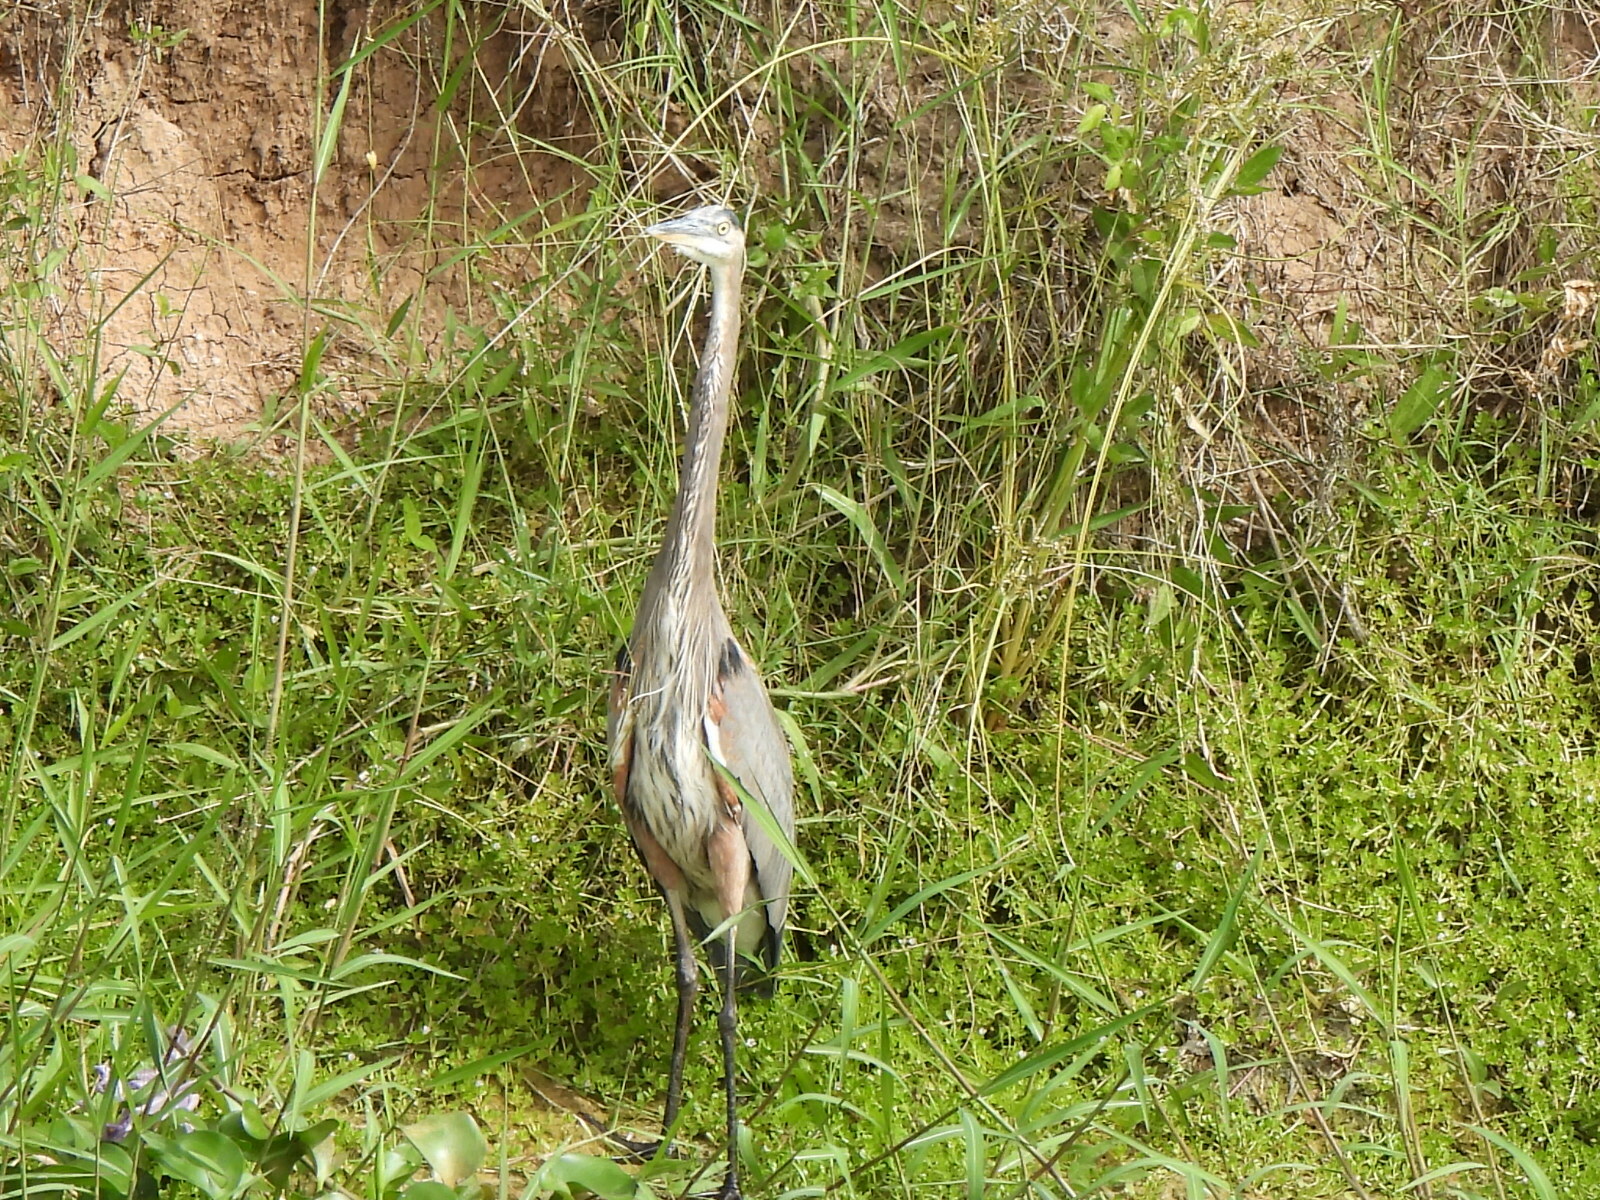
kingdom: Animalia
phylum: Chordata
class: Aves
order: Pelecaniformes
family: Ardeidae
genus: Ardea
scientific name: Ardea herodias
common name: Great blue heron
